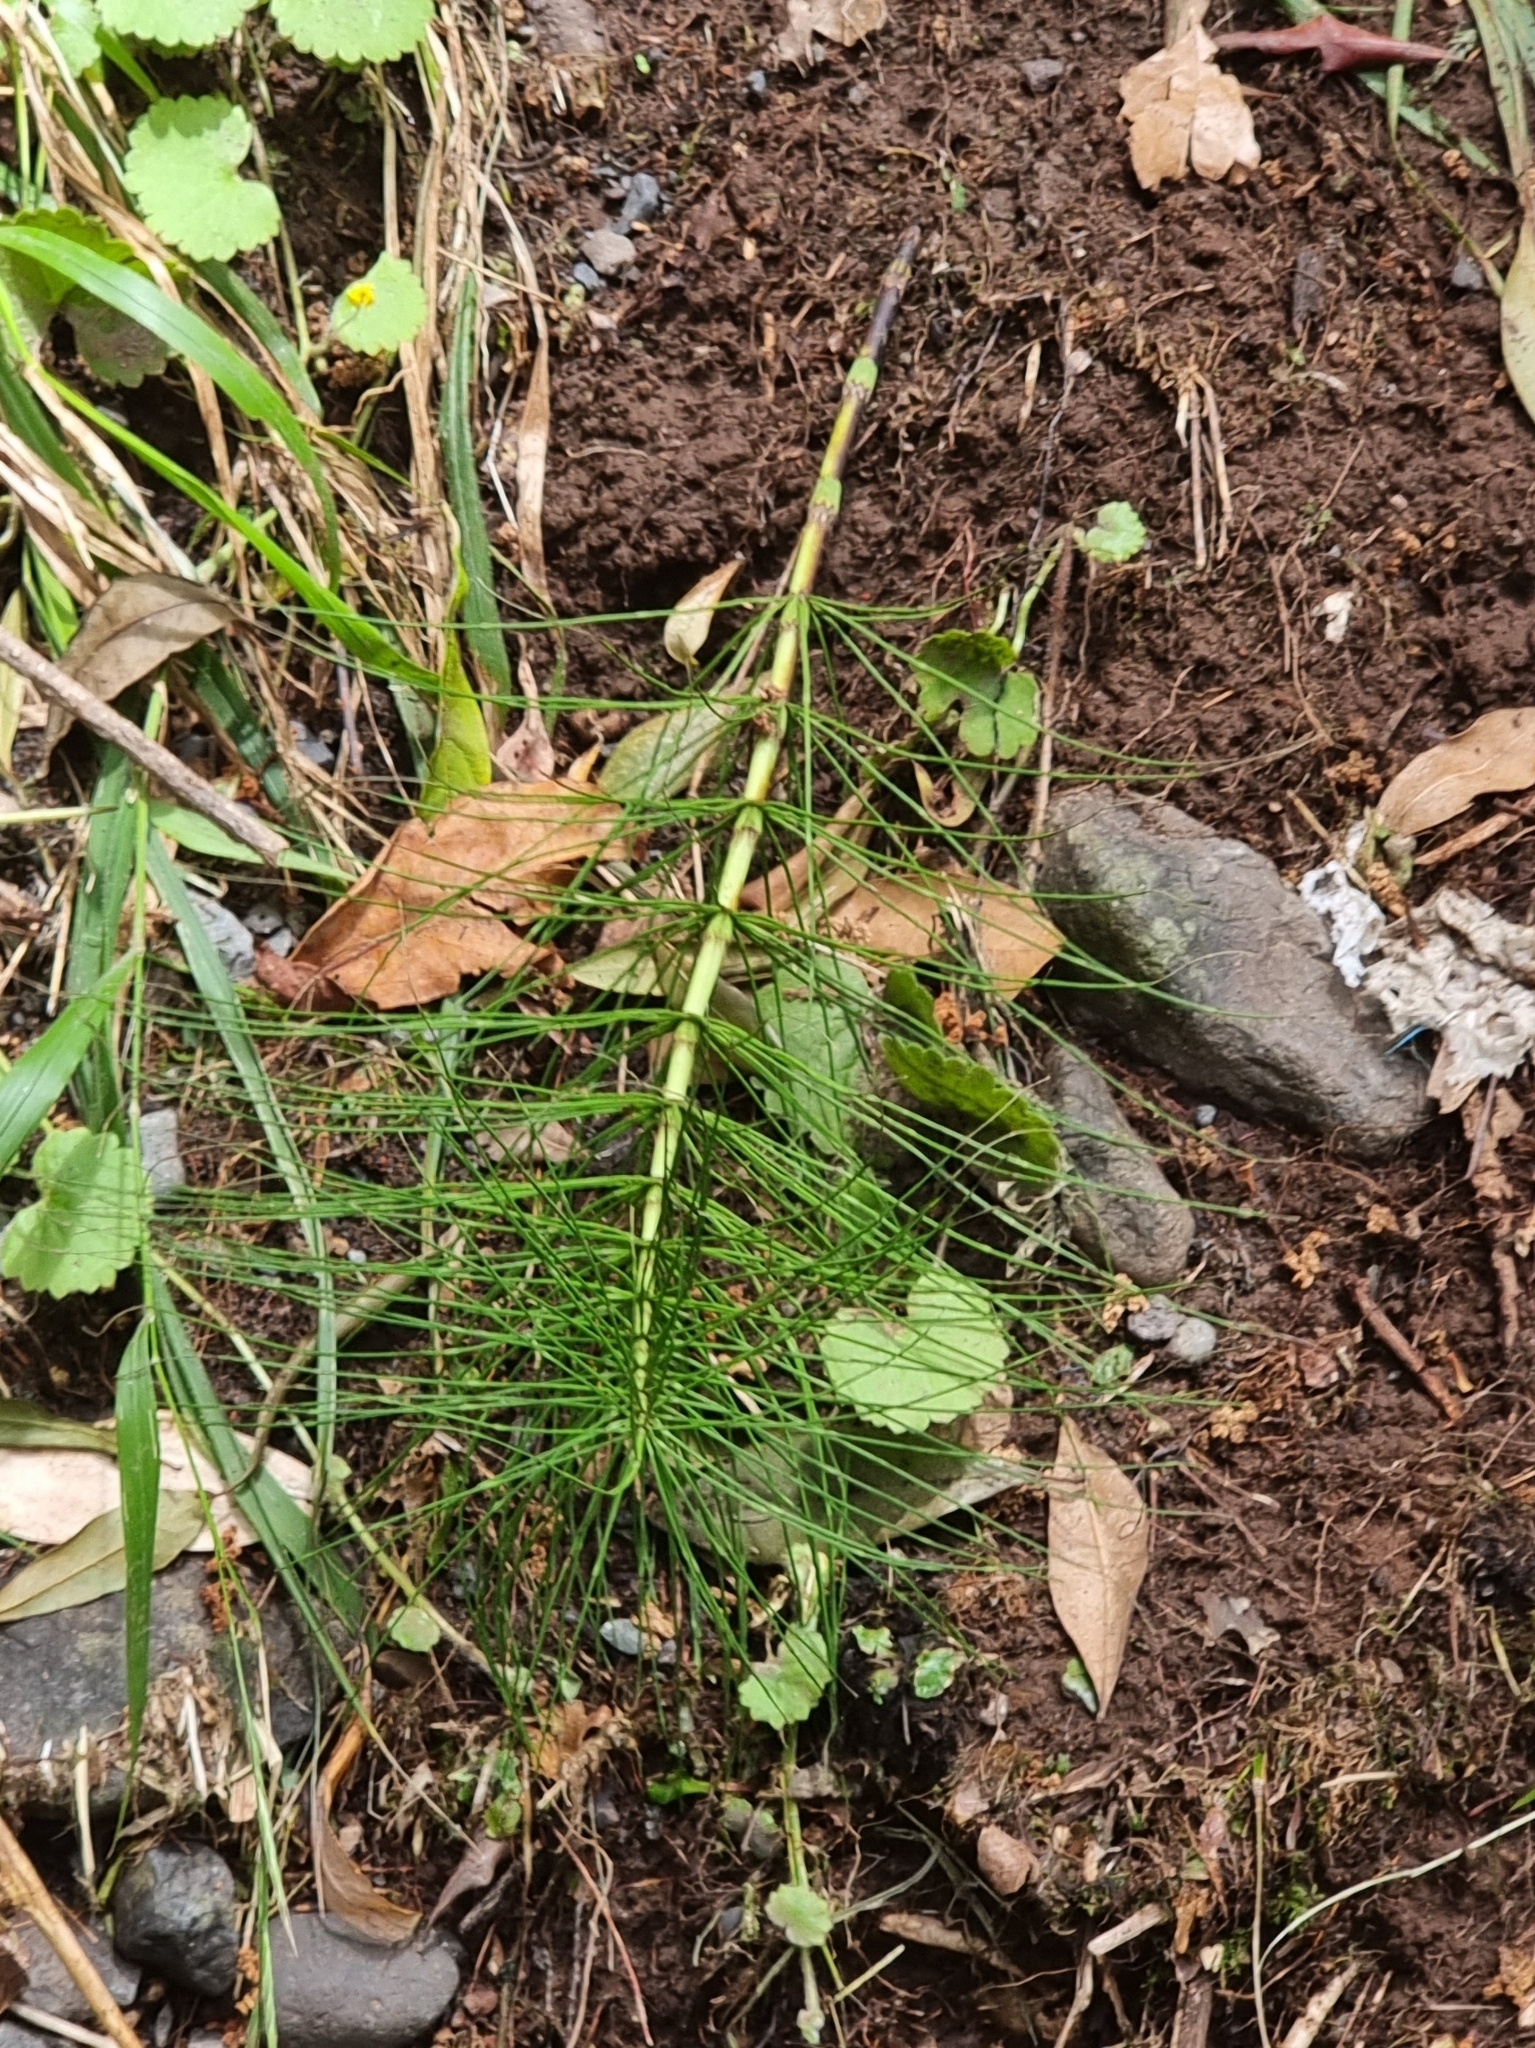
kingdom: Plantae
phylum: Tracheophyta
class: Polypodiopsida
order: Equisetales
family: Equisetaceae
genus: Equisetum
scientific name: Equisetum telmateia
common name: Great horsetail
